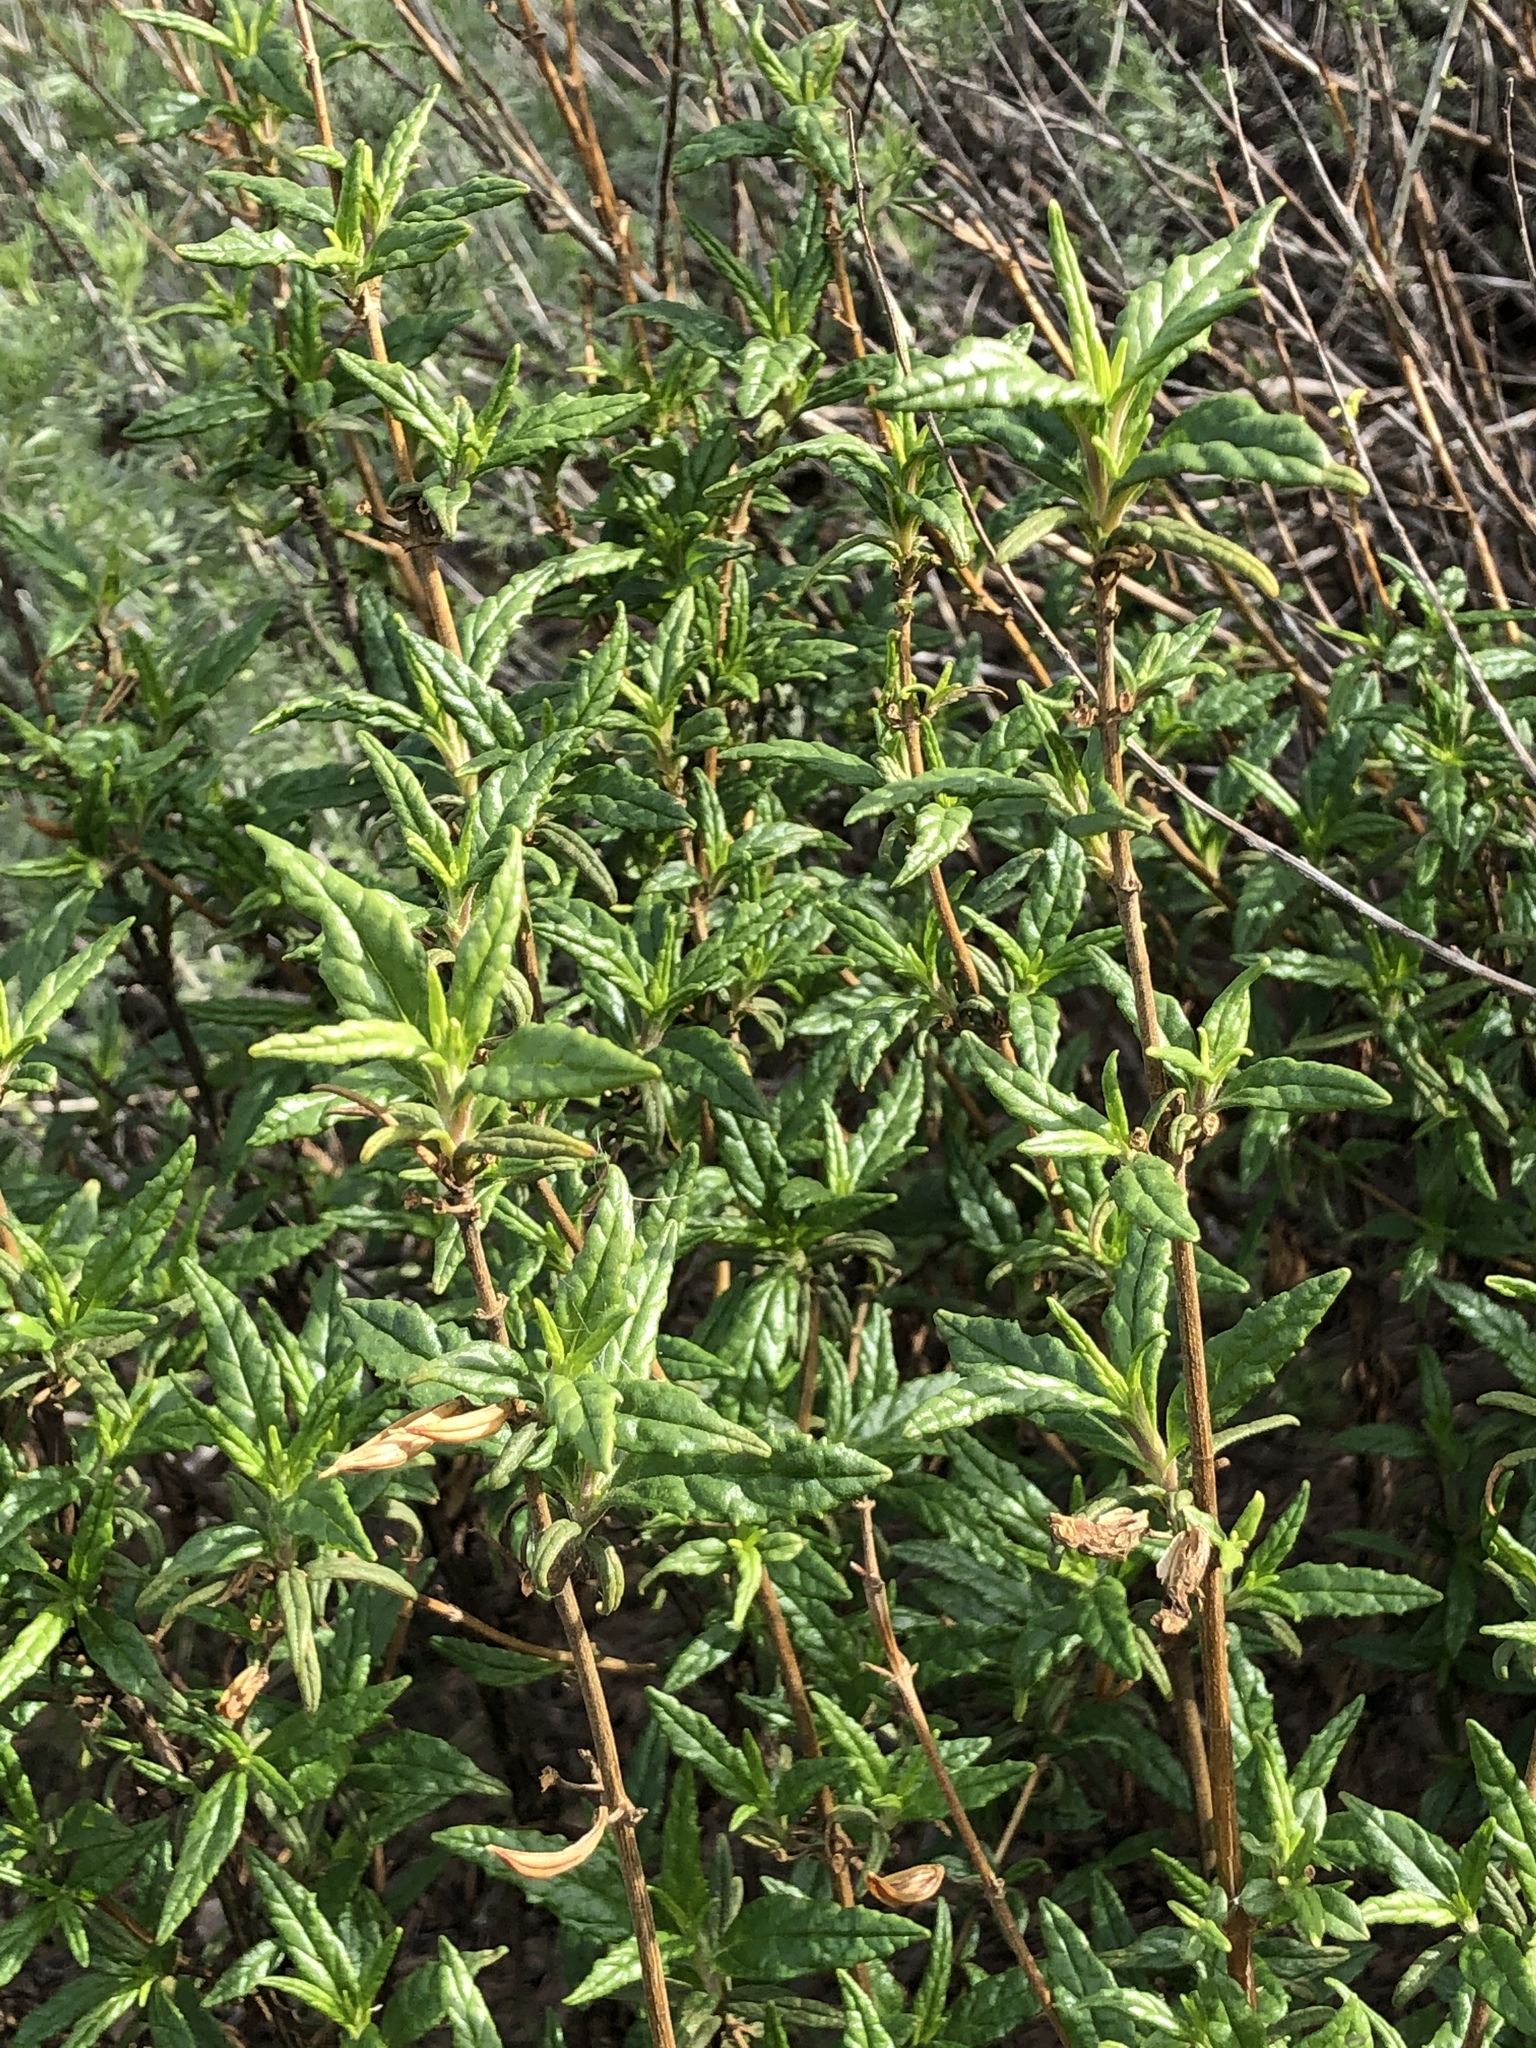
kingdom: Plantae
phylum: Tracheophyta
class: Magnoliopsida
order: Lamiales
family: Phrymaceae
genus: Diplacus
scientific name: Diplacus aurantiacus
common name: Bush monkey-flower
